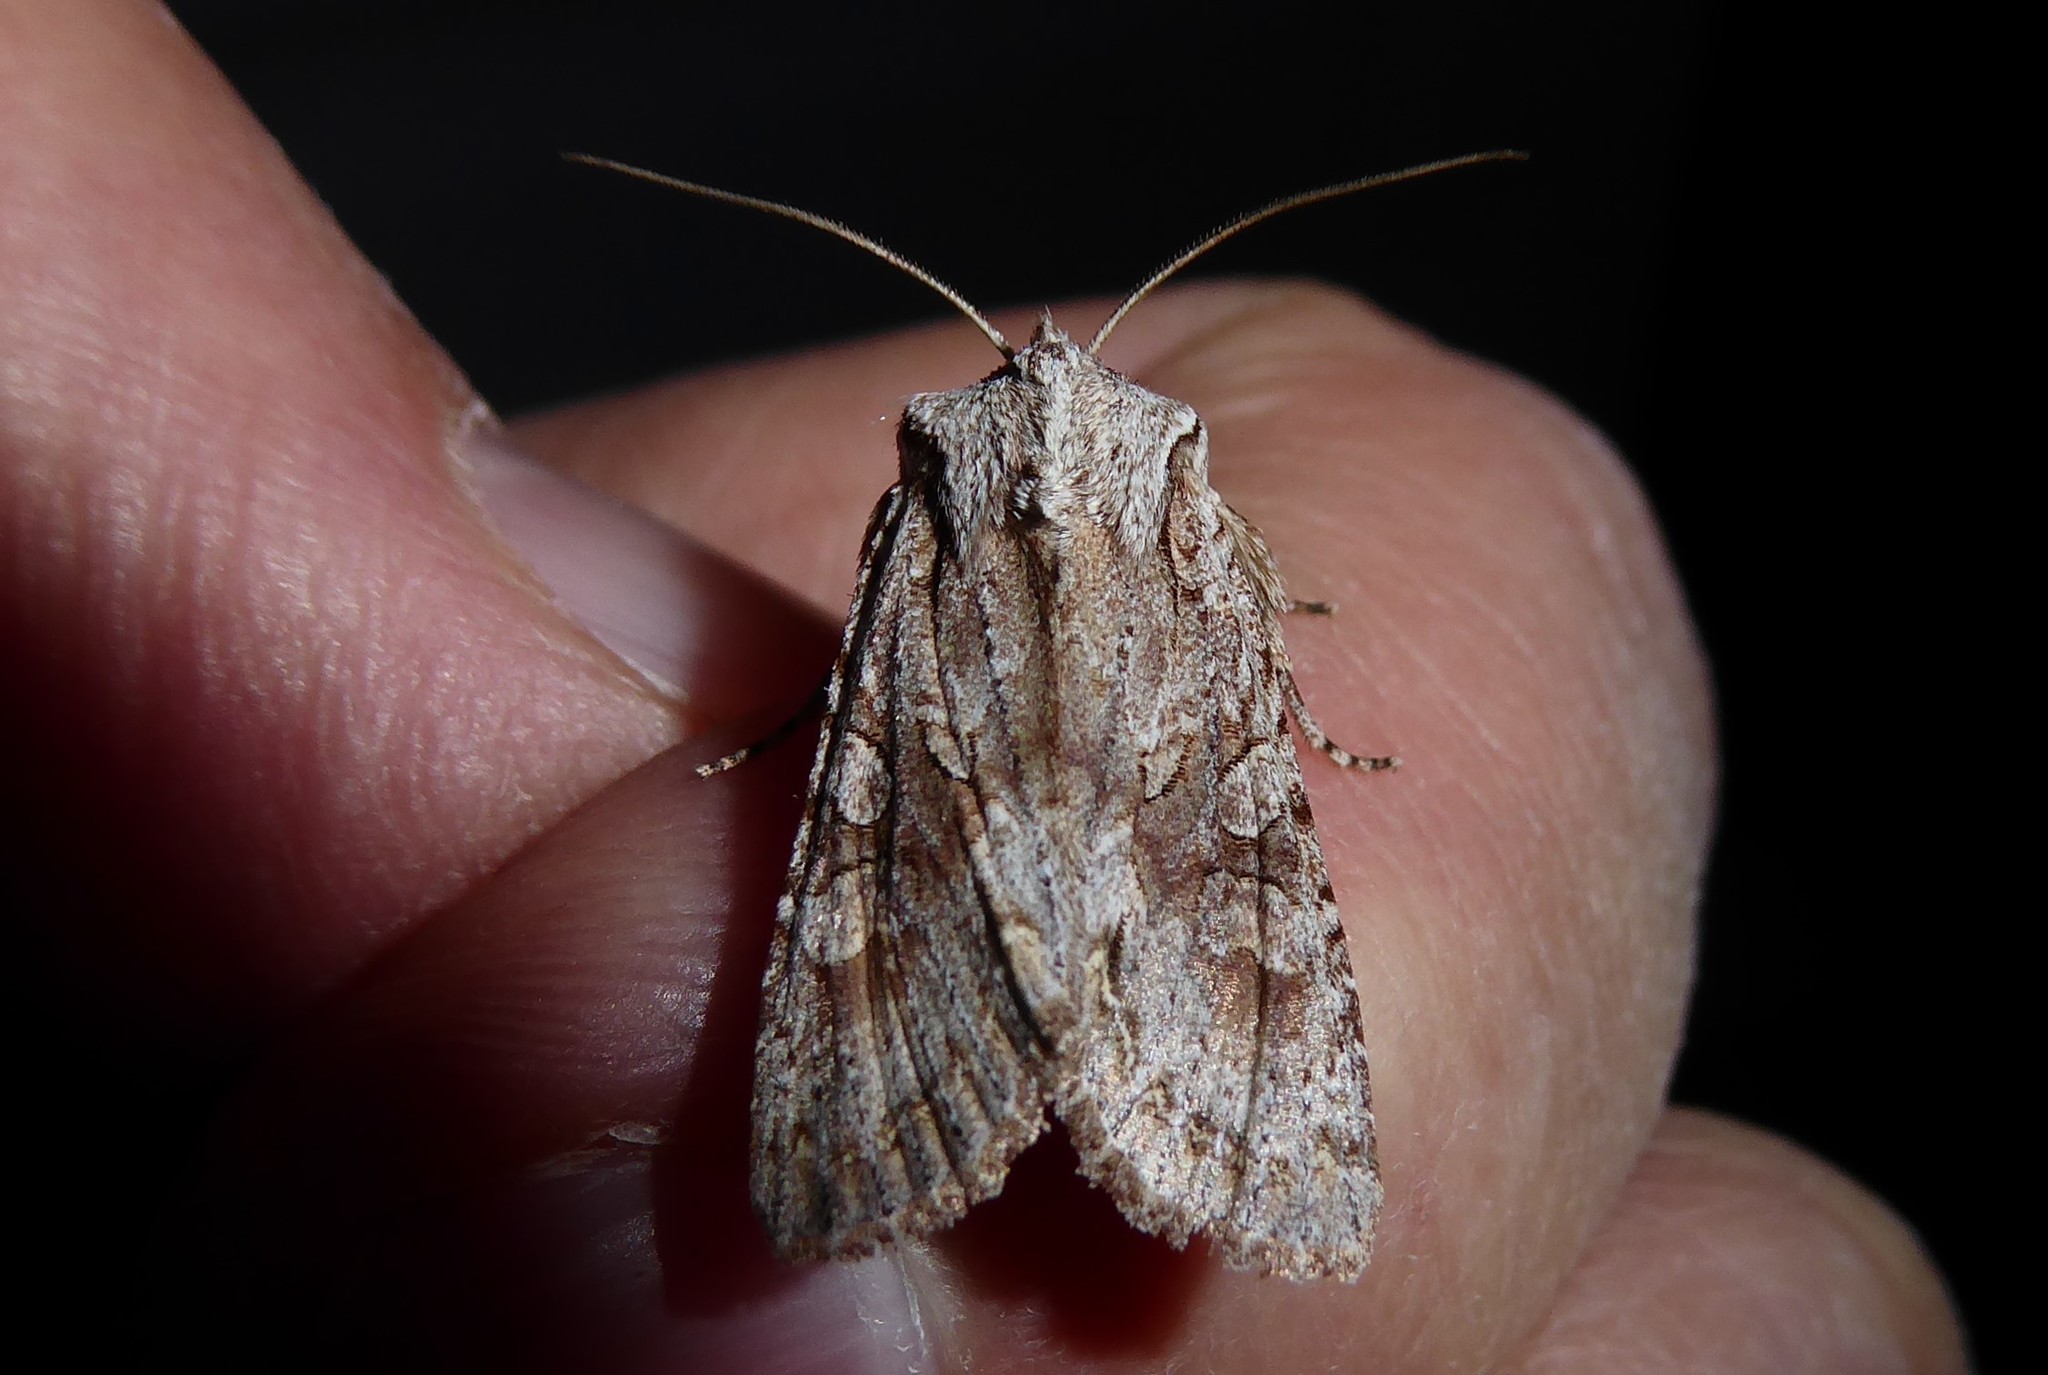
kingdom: Animalia
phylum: Arthropoda
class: Insecta
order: Lepidoptera
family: Noctuidae
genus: Ichneutica
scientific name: Ichneutica mutans
